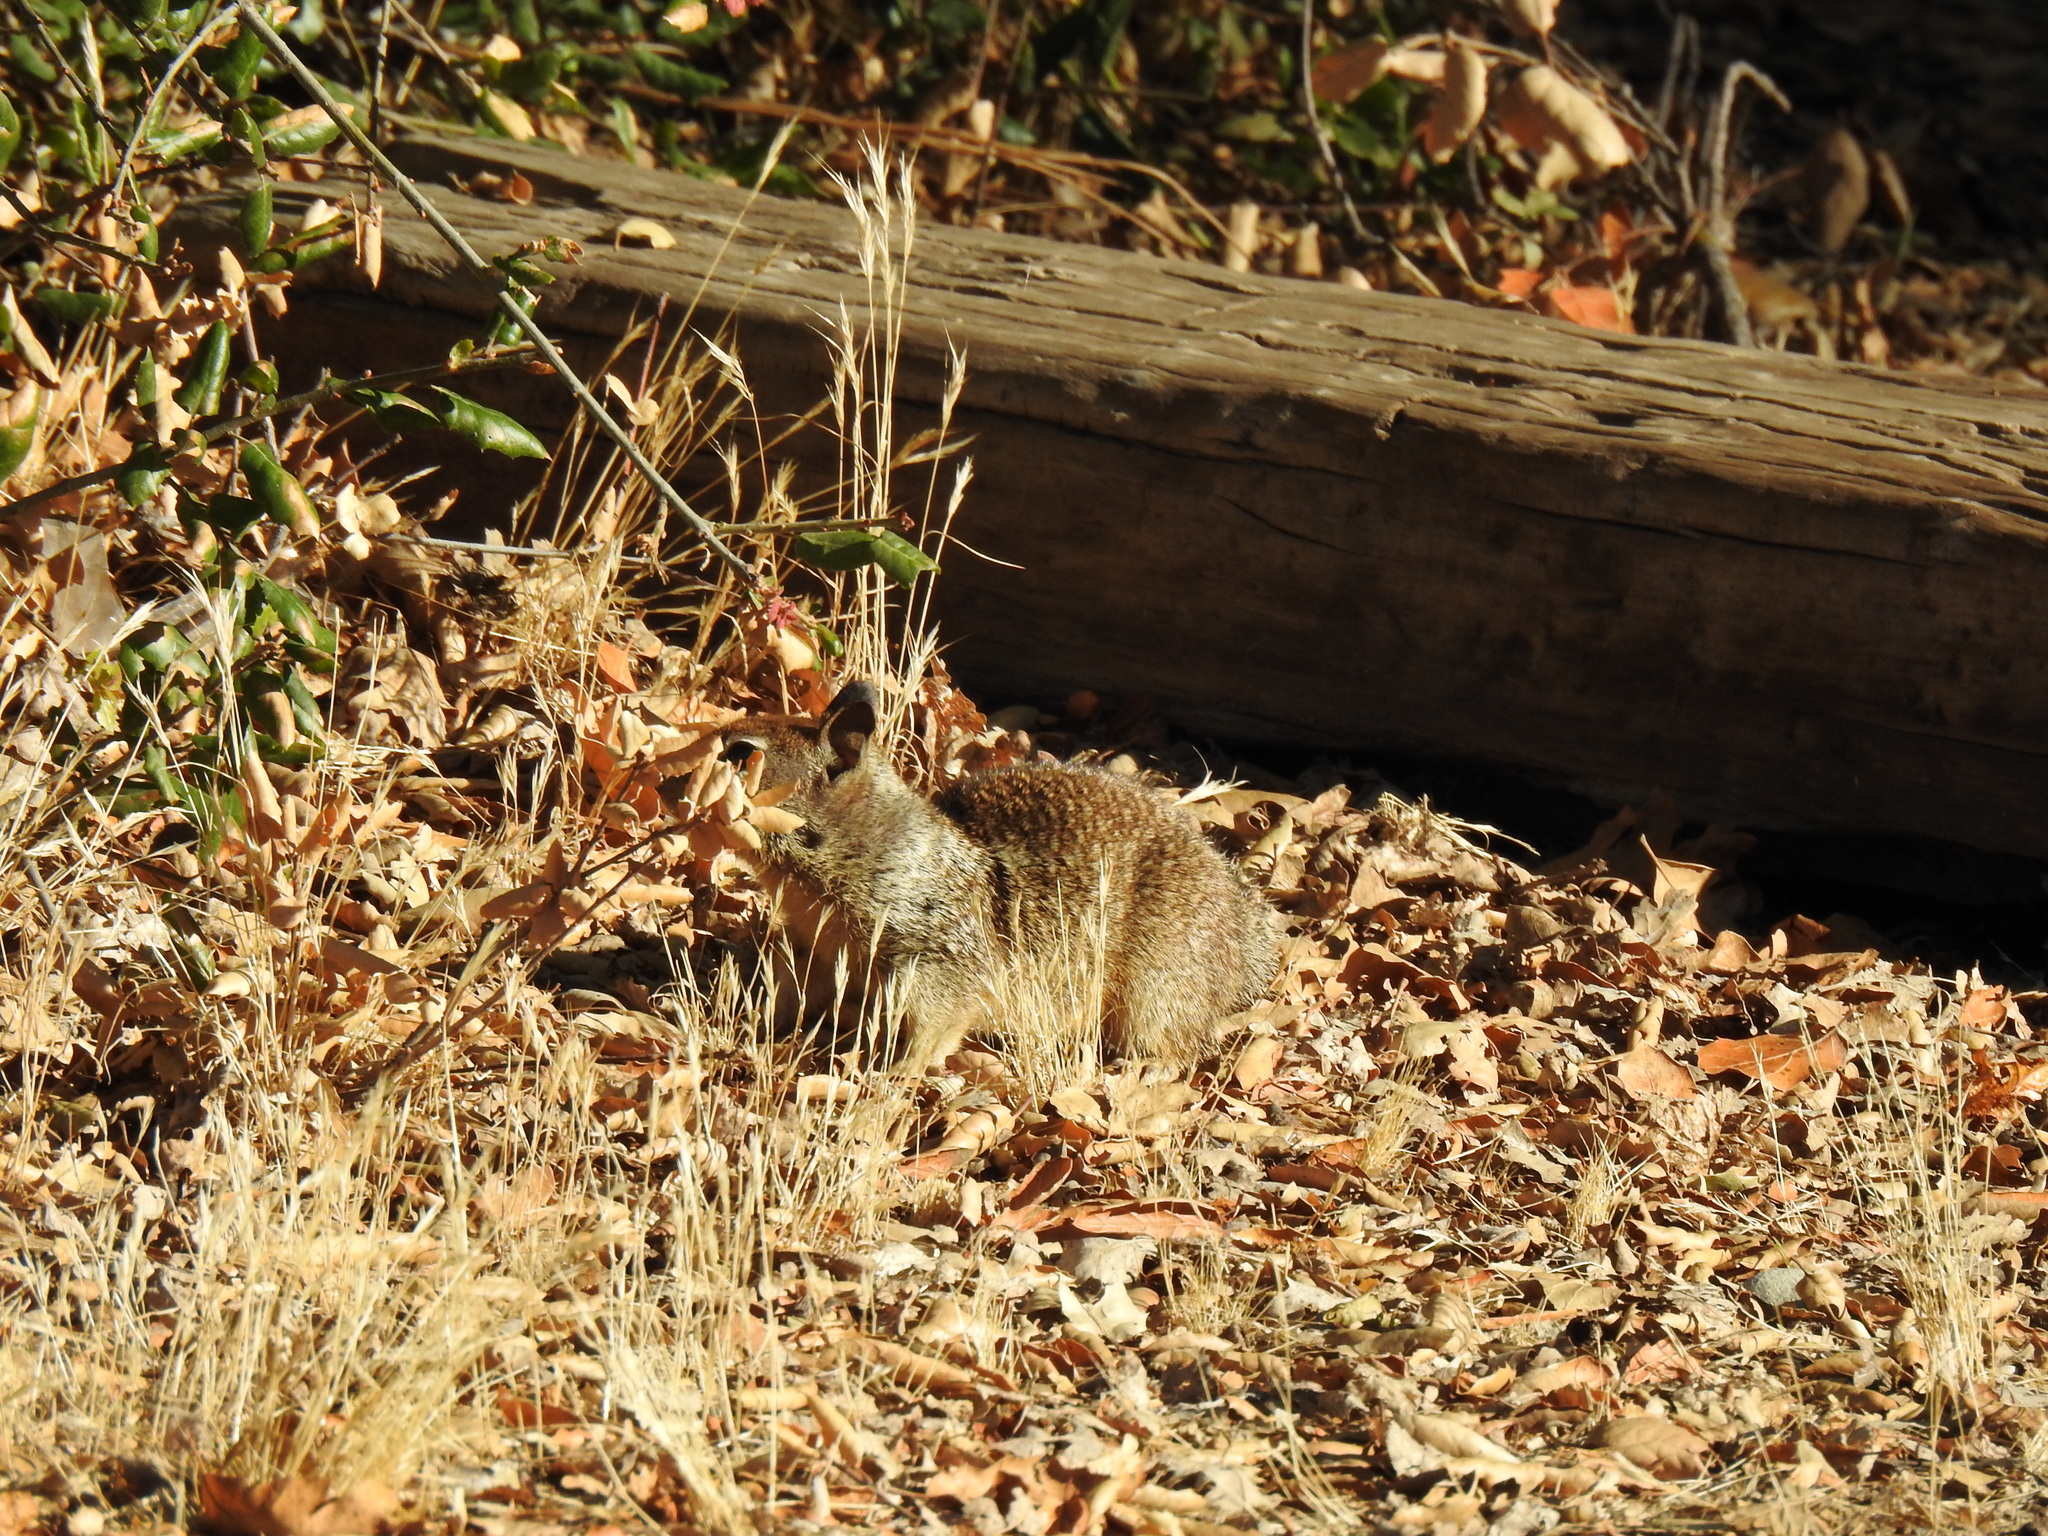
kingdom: Animalia
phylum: Chordata
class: Mammalia
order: Rodentia
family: Sciuridae
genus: Otospermophilus
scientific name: Otospermophilus beecheyi
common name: California ground squirrel
